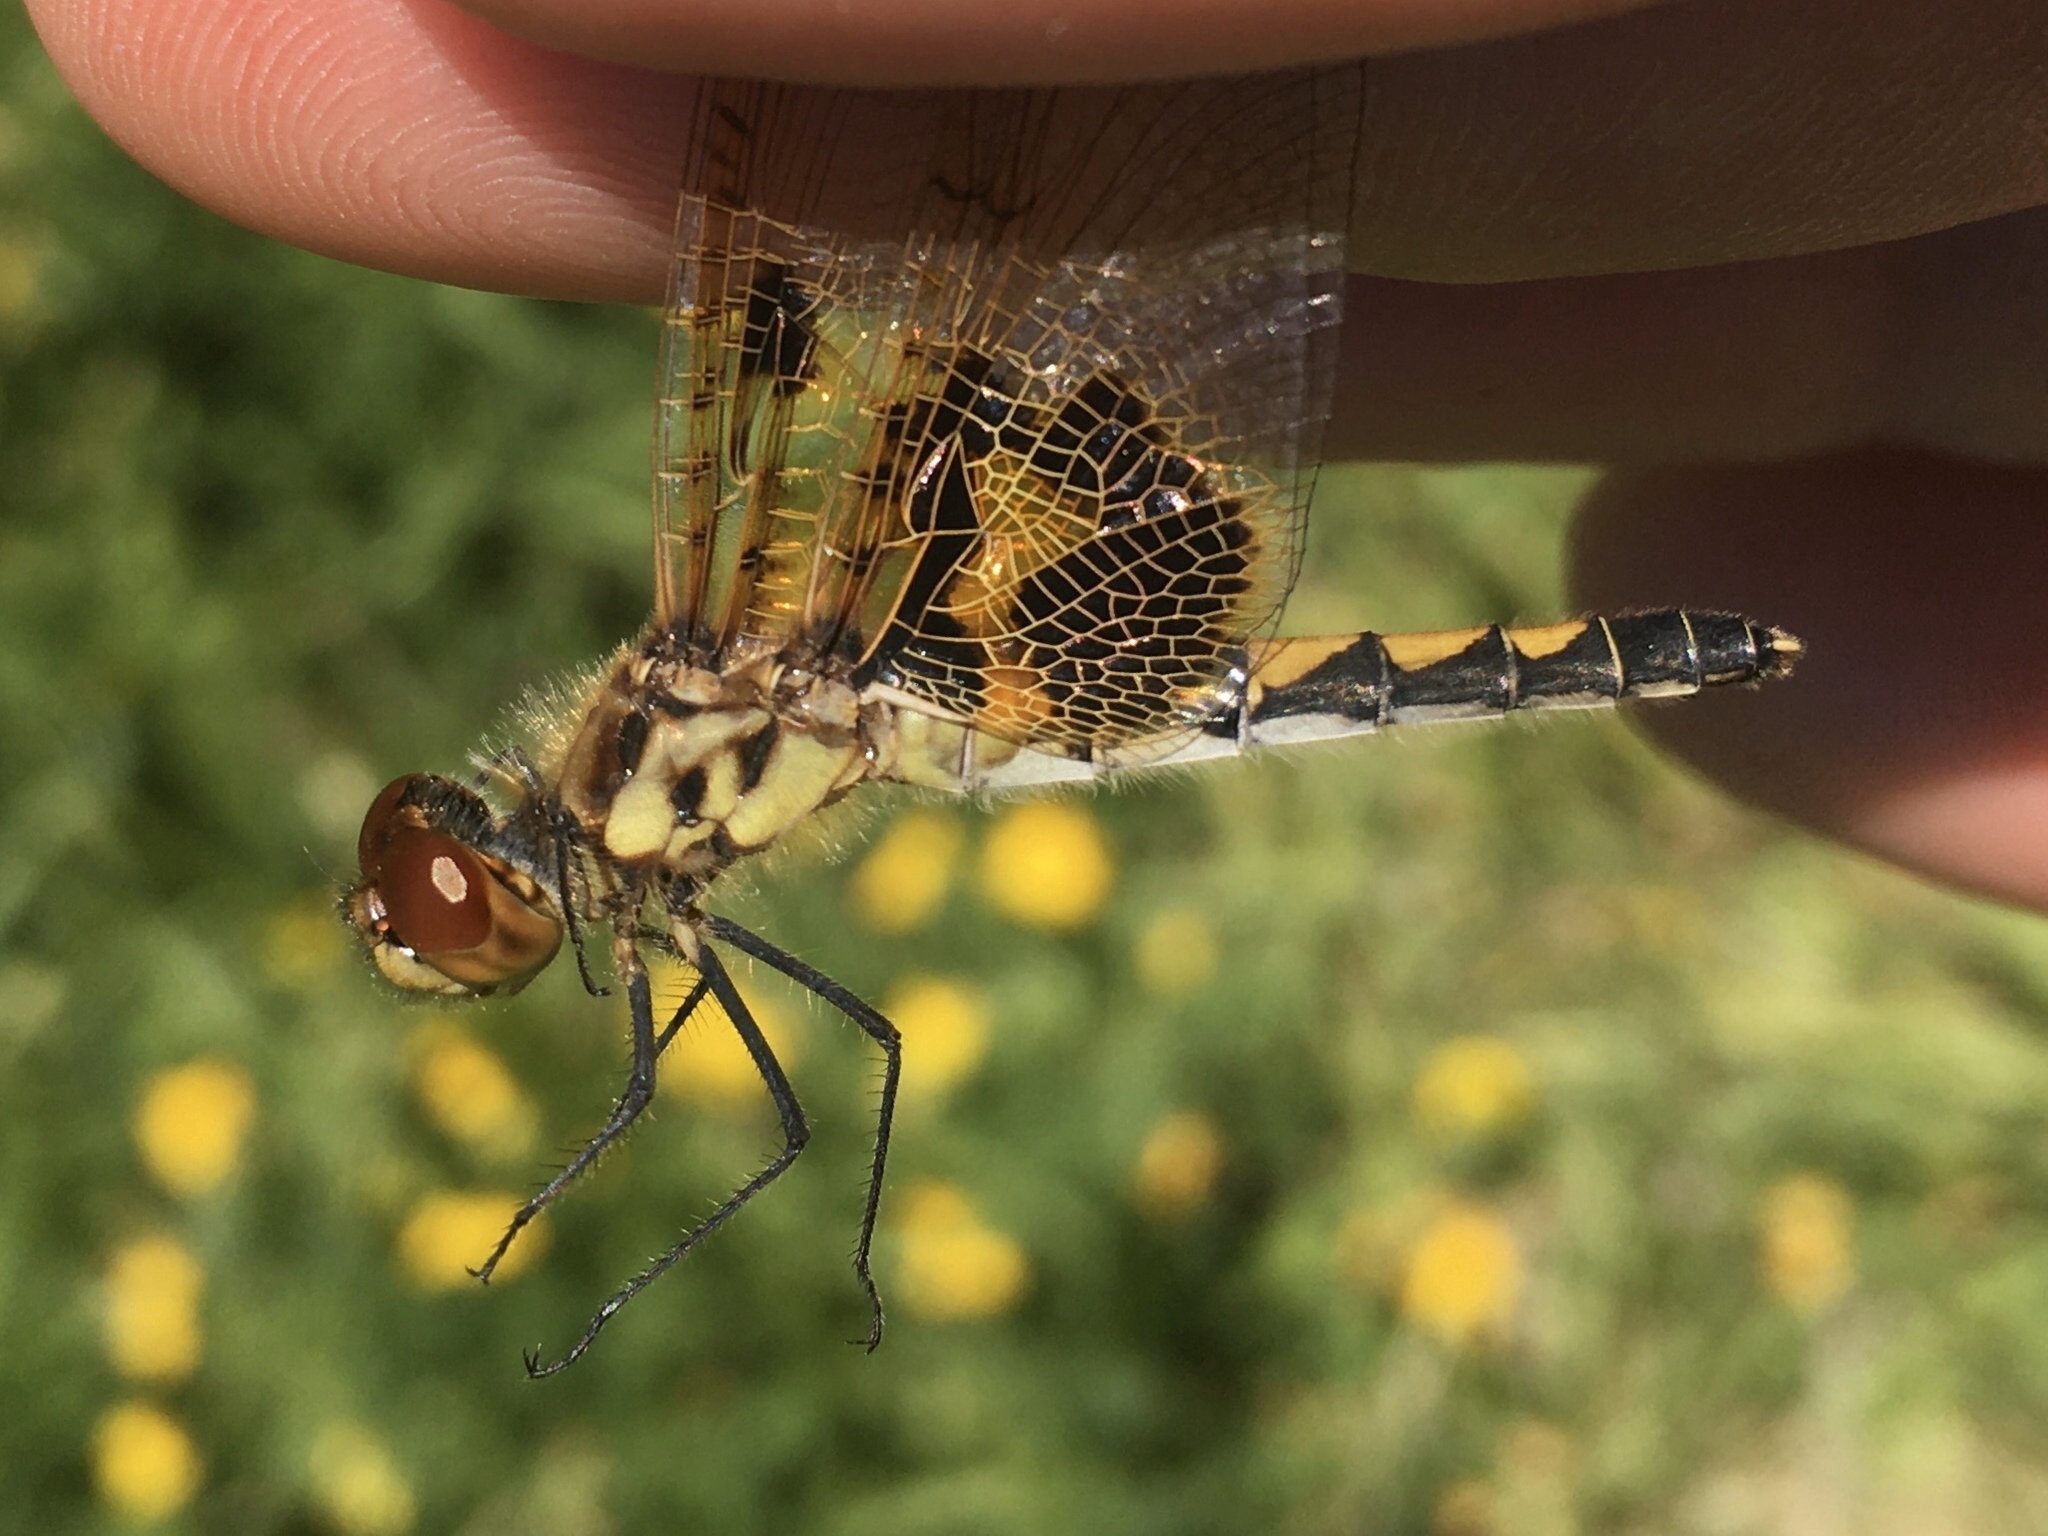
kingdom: Animalia
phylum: Arthropoda
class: Insecta
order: Odonata
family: Libellulidae
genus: Celithemis
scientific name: Celithemis elisa
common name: Calico pennant
